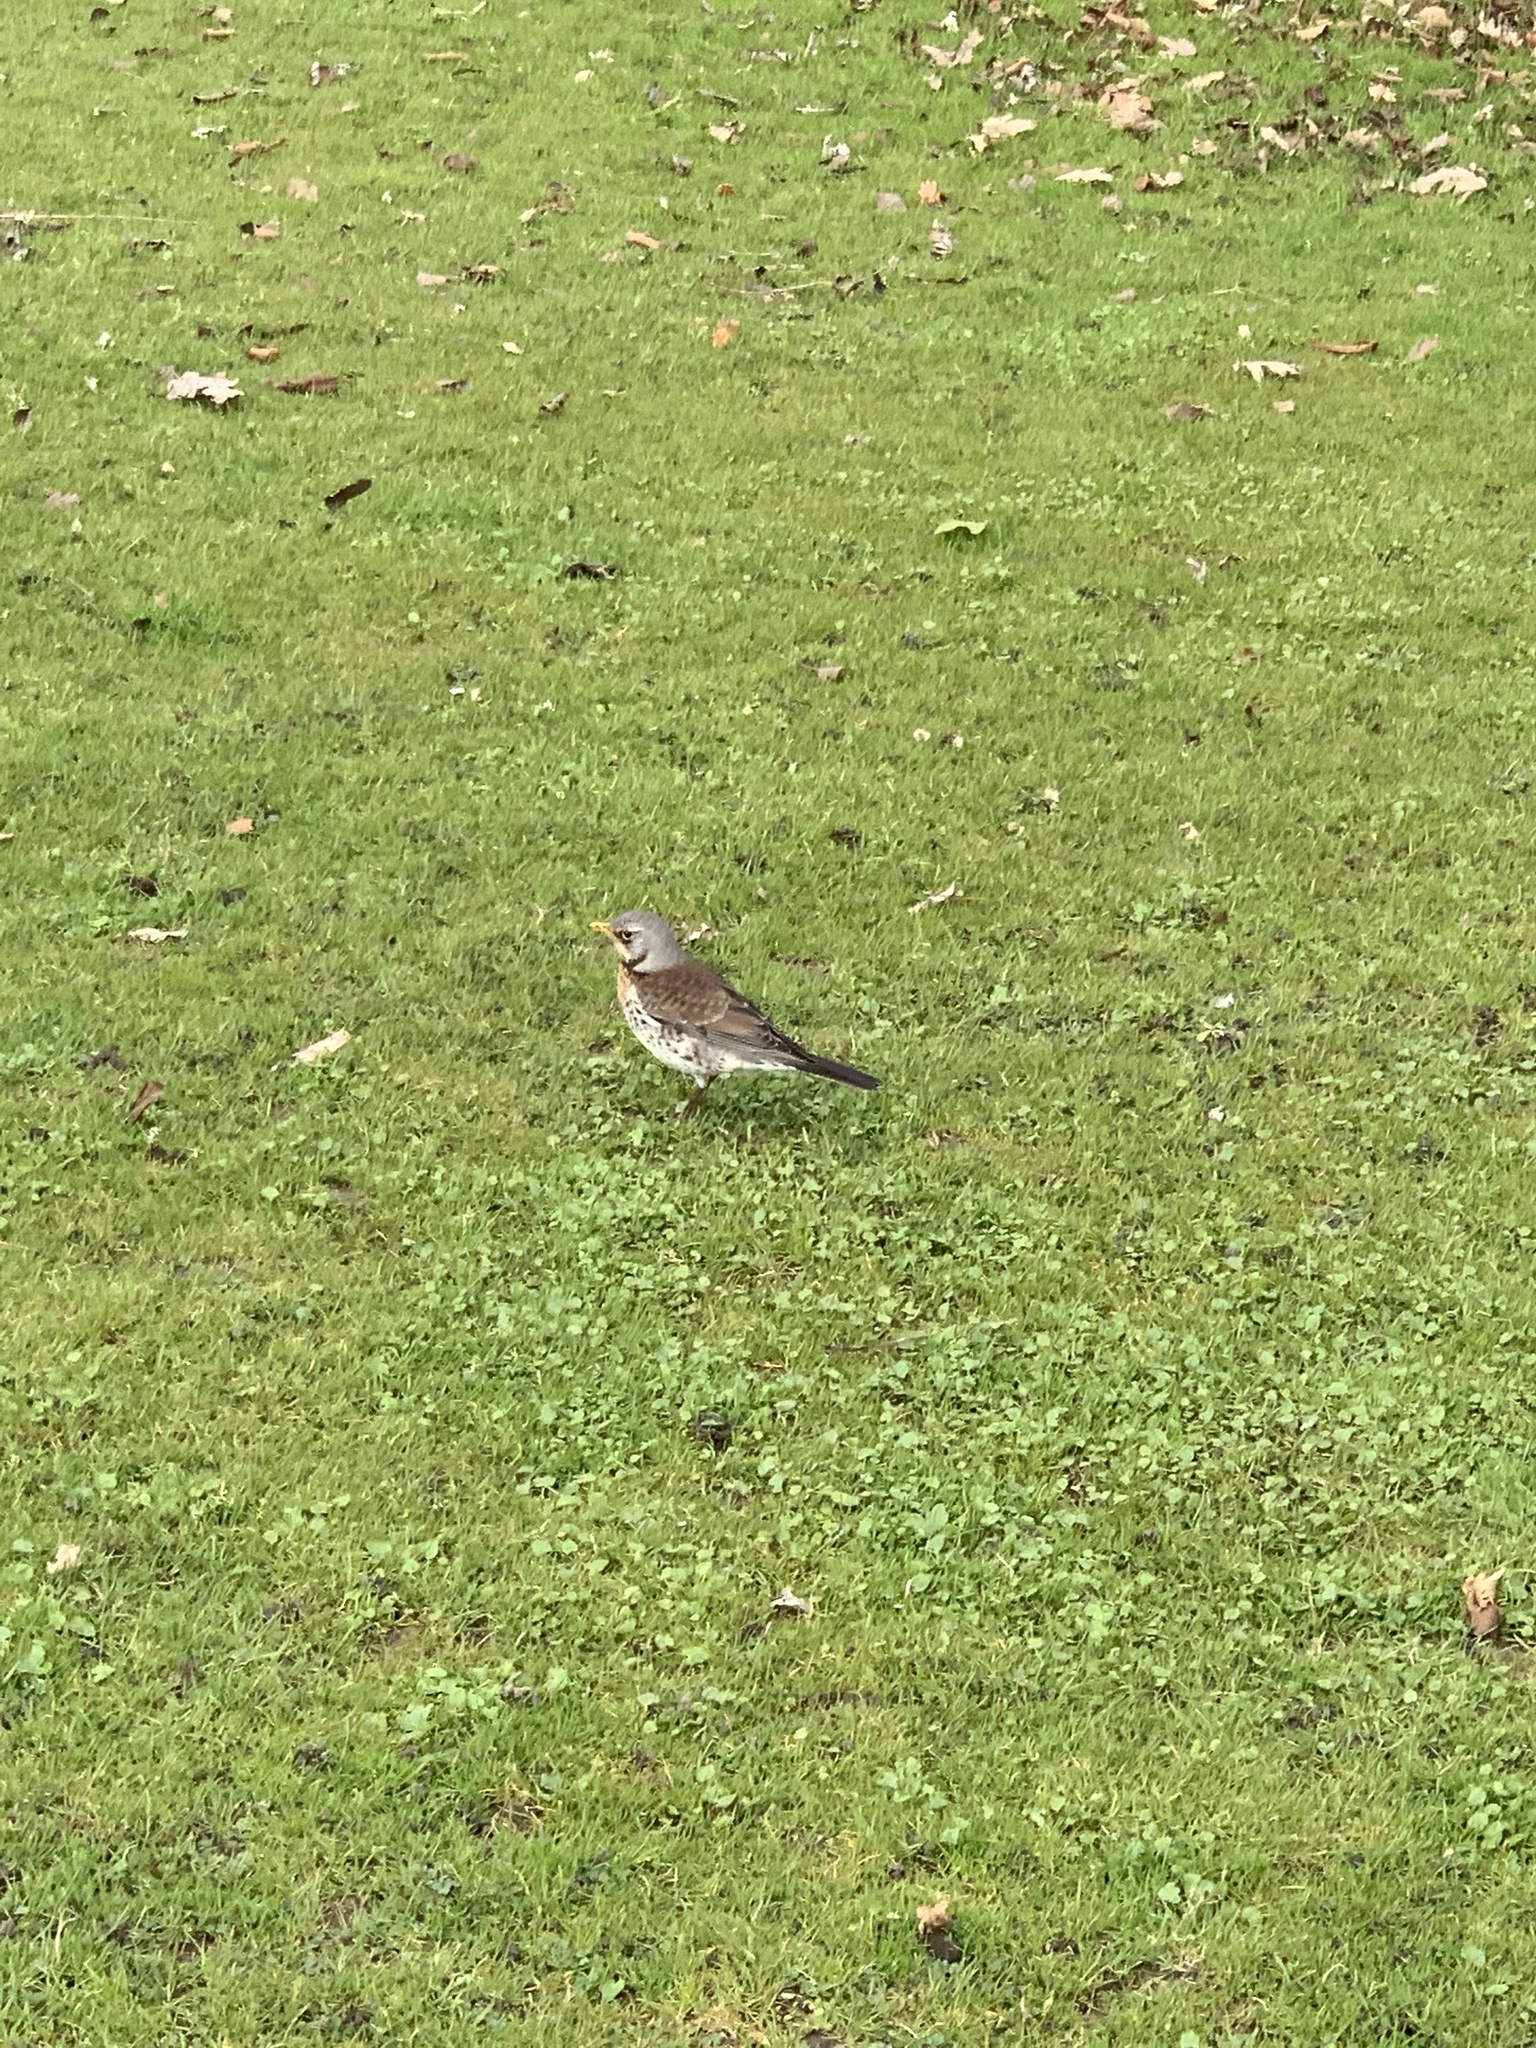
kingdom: Animalia
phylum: Chordata
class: Aves
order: Passeriformes
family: Turdidae
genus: Turdus
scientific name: Turdus pilaris
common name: Fieldfare
